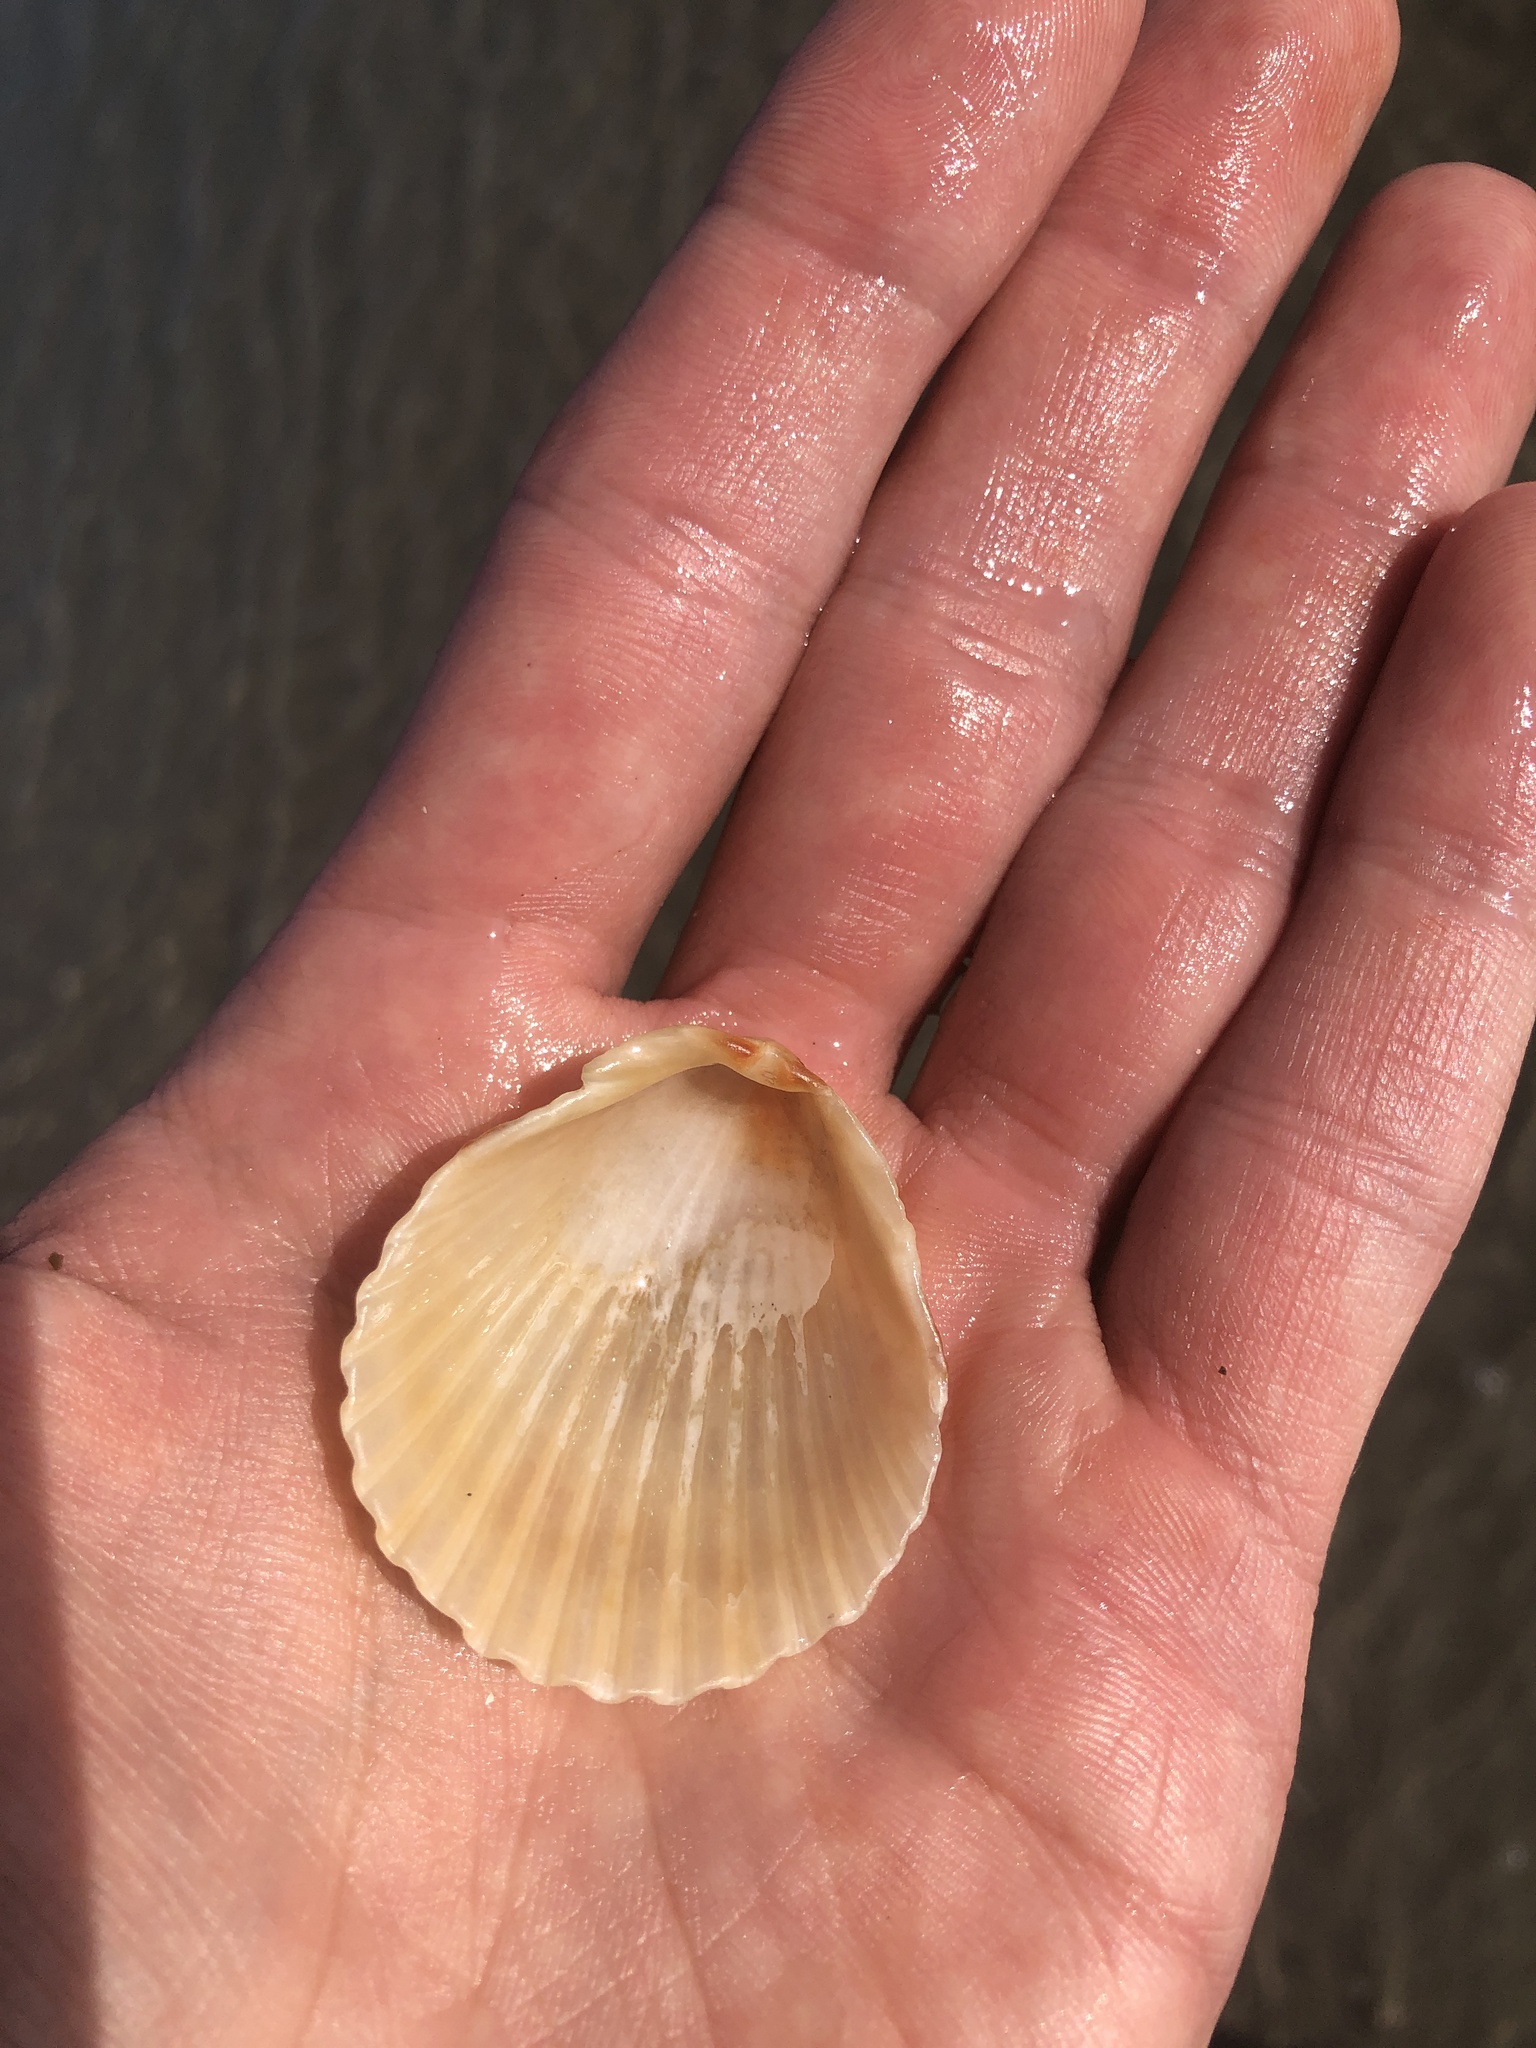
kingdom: Animalia
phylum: Mollusca
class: Bivalvia
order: Pectinida
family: Pectinidae
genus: Argopecten
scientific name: Argopecten gibbus
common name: Atlantic calico scallop
